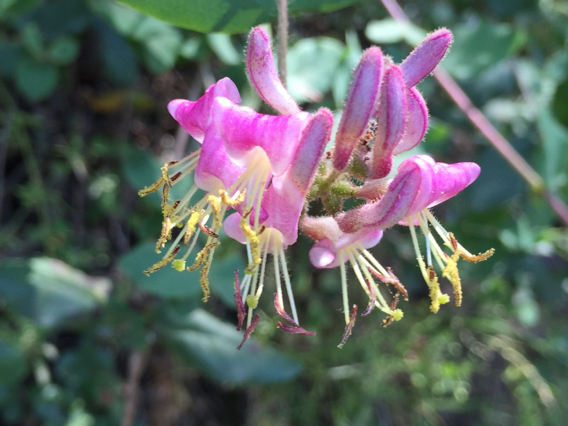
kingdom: Plantae
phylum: Tracheophyta
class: Magnoliopsida
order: Dipsacales
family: Caprifoliaceae
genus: Lonicera
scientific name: Lonicera hispidula
